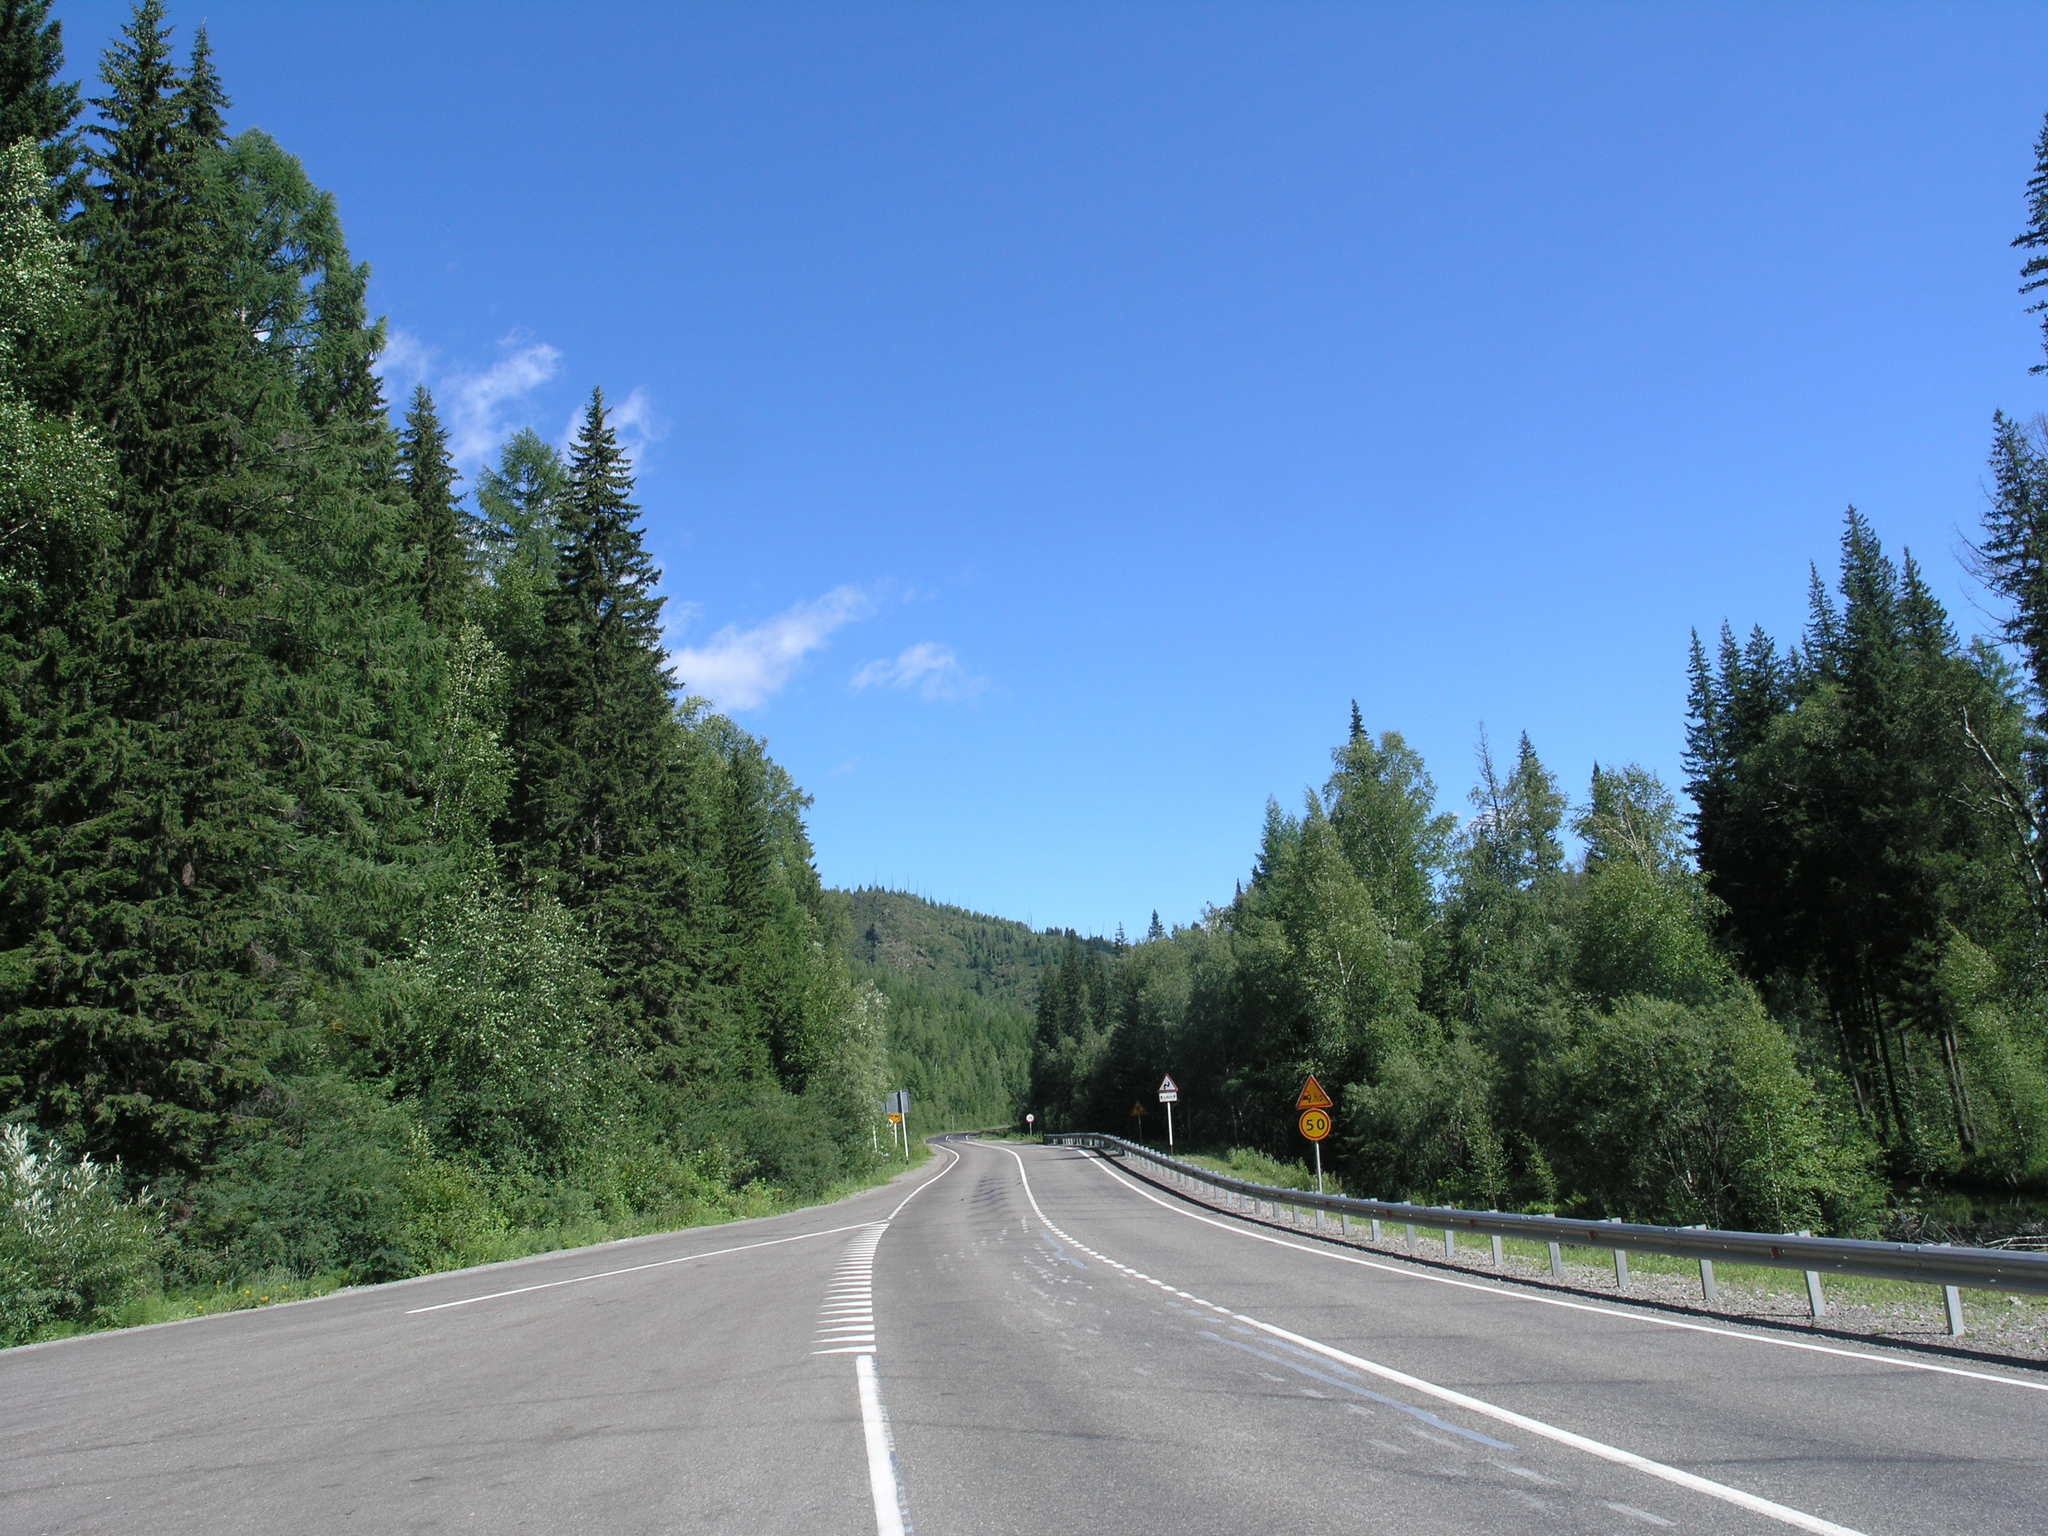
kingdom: Plantae
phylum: Tracheophyta
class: Pinopsida
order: Pinales
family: Pinaceae
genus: Picea
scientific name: Picea obovata
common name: Siberian spruce
